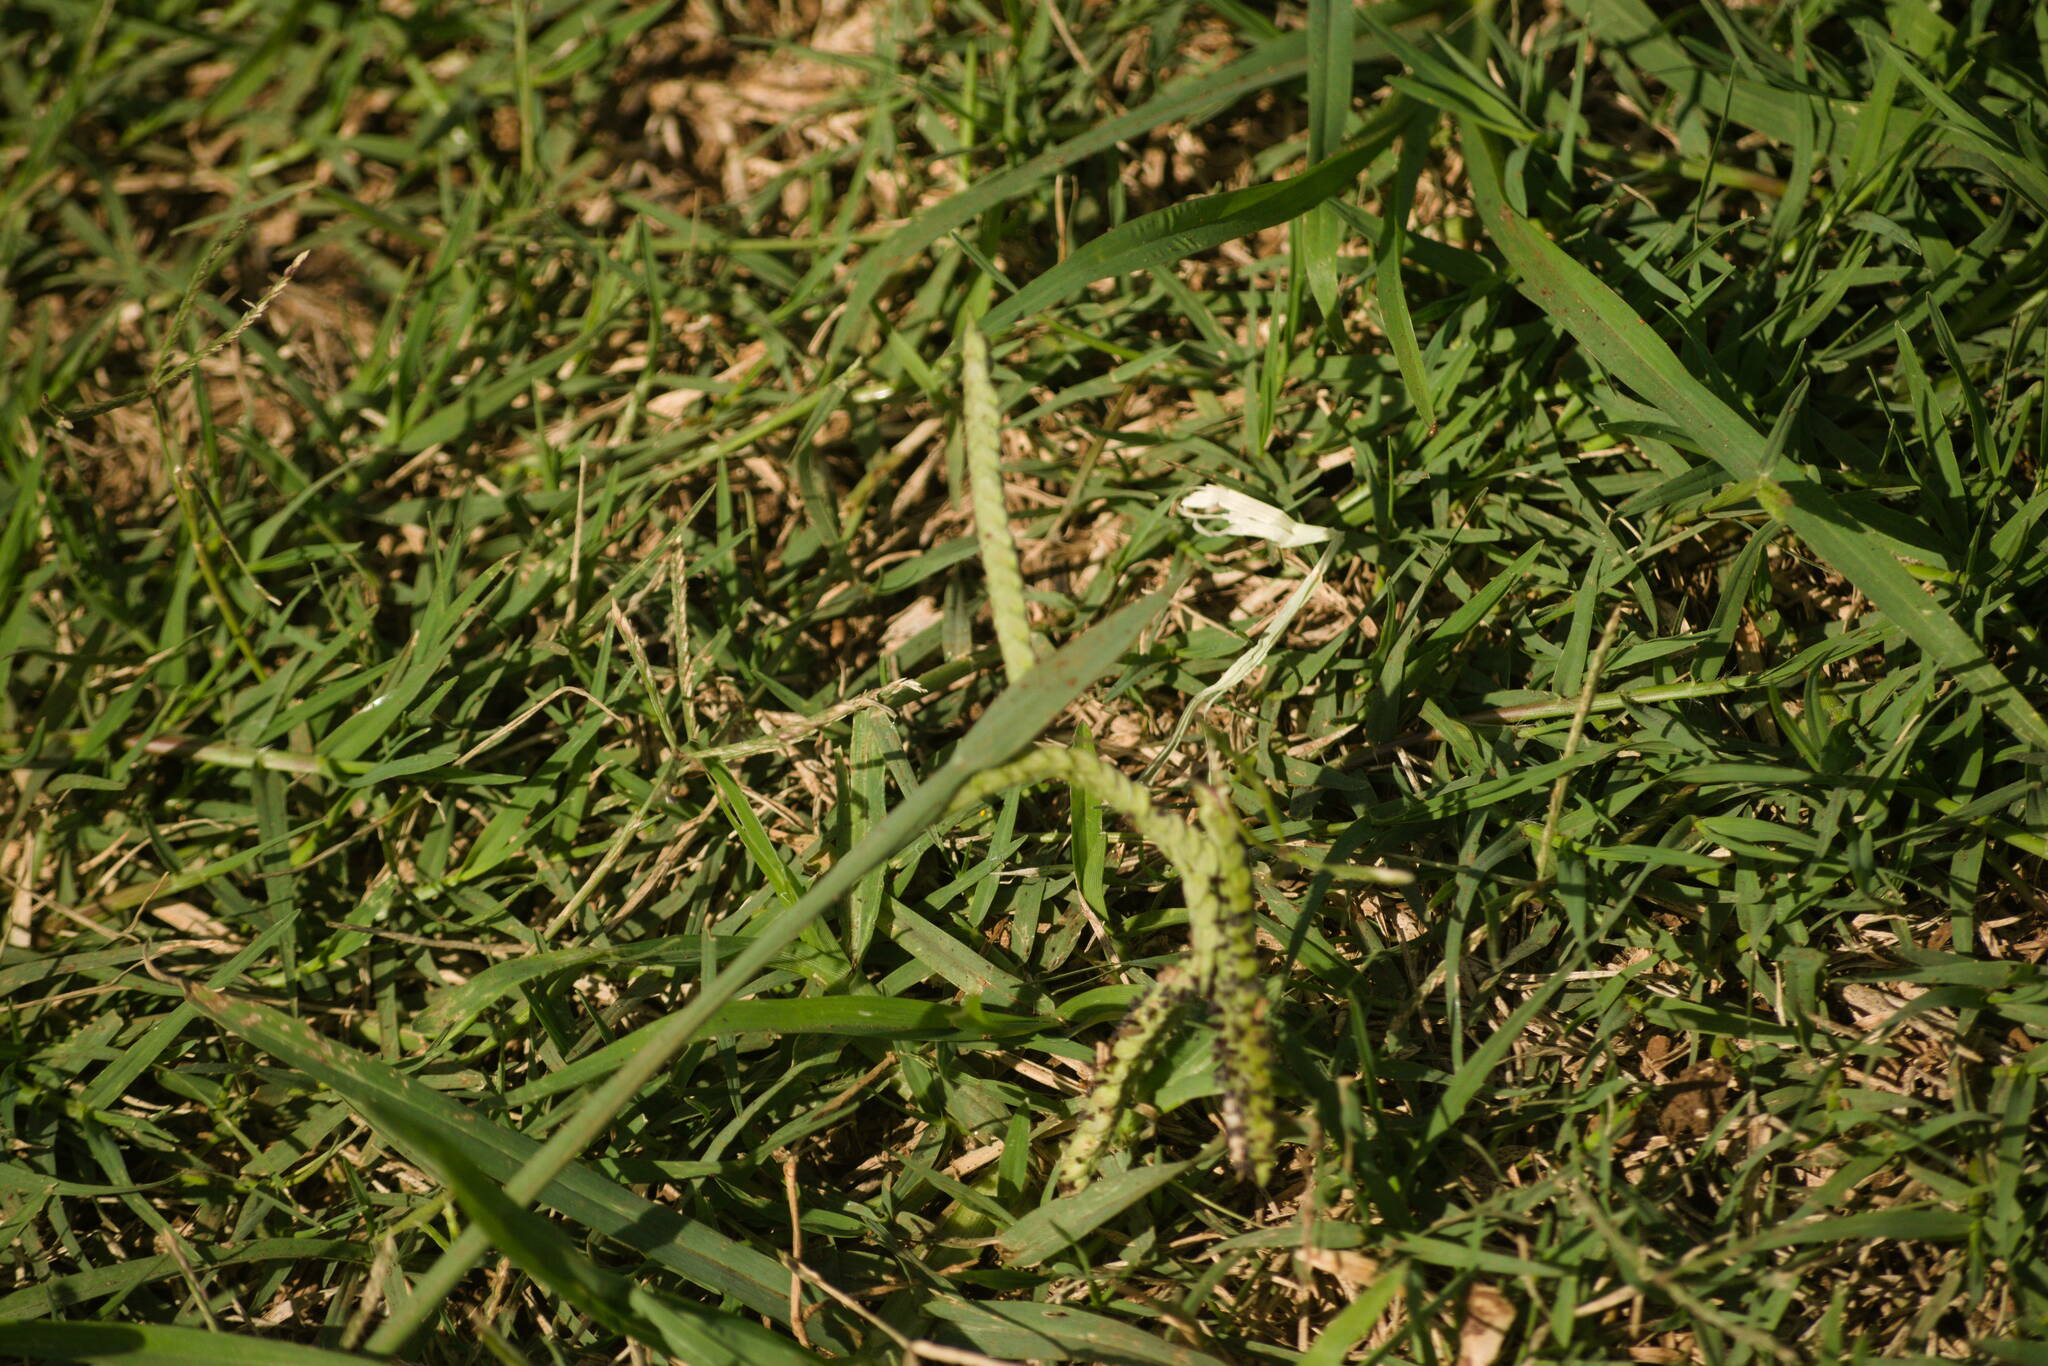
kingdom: Plantae
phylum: Tracheophyta
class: Liliopsida
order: Poales
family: Poaceae
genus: Paspalum
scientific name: Paspalum dilatatum
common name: Dallisgrass
